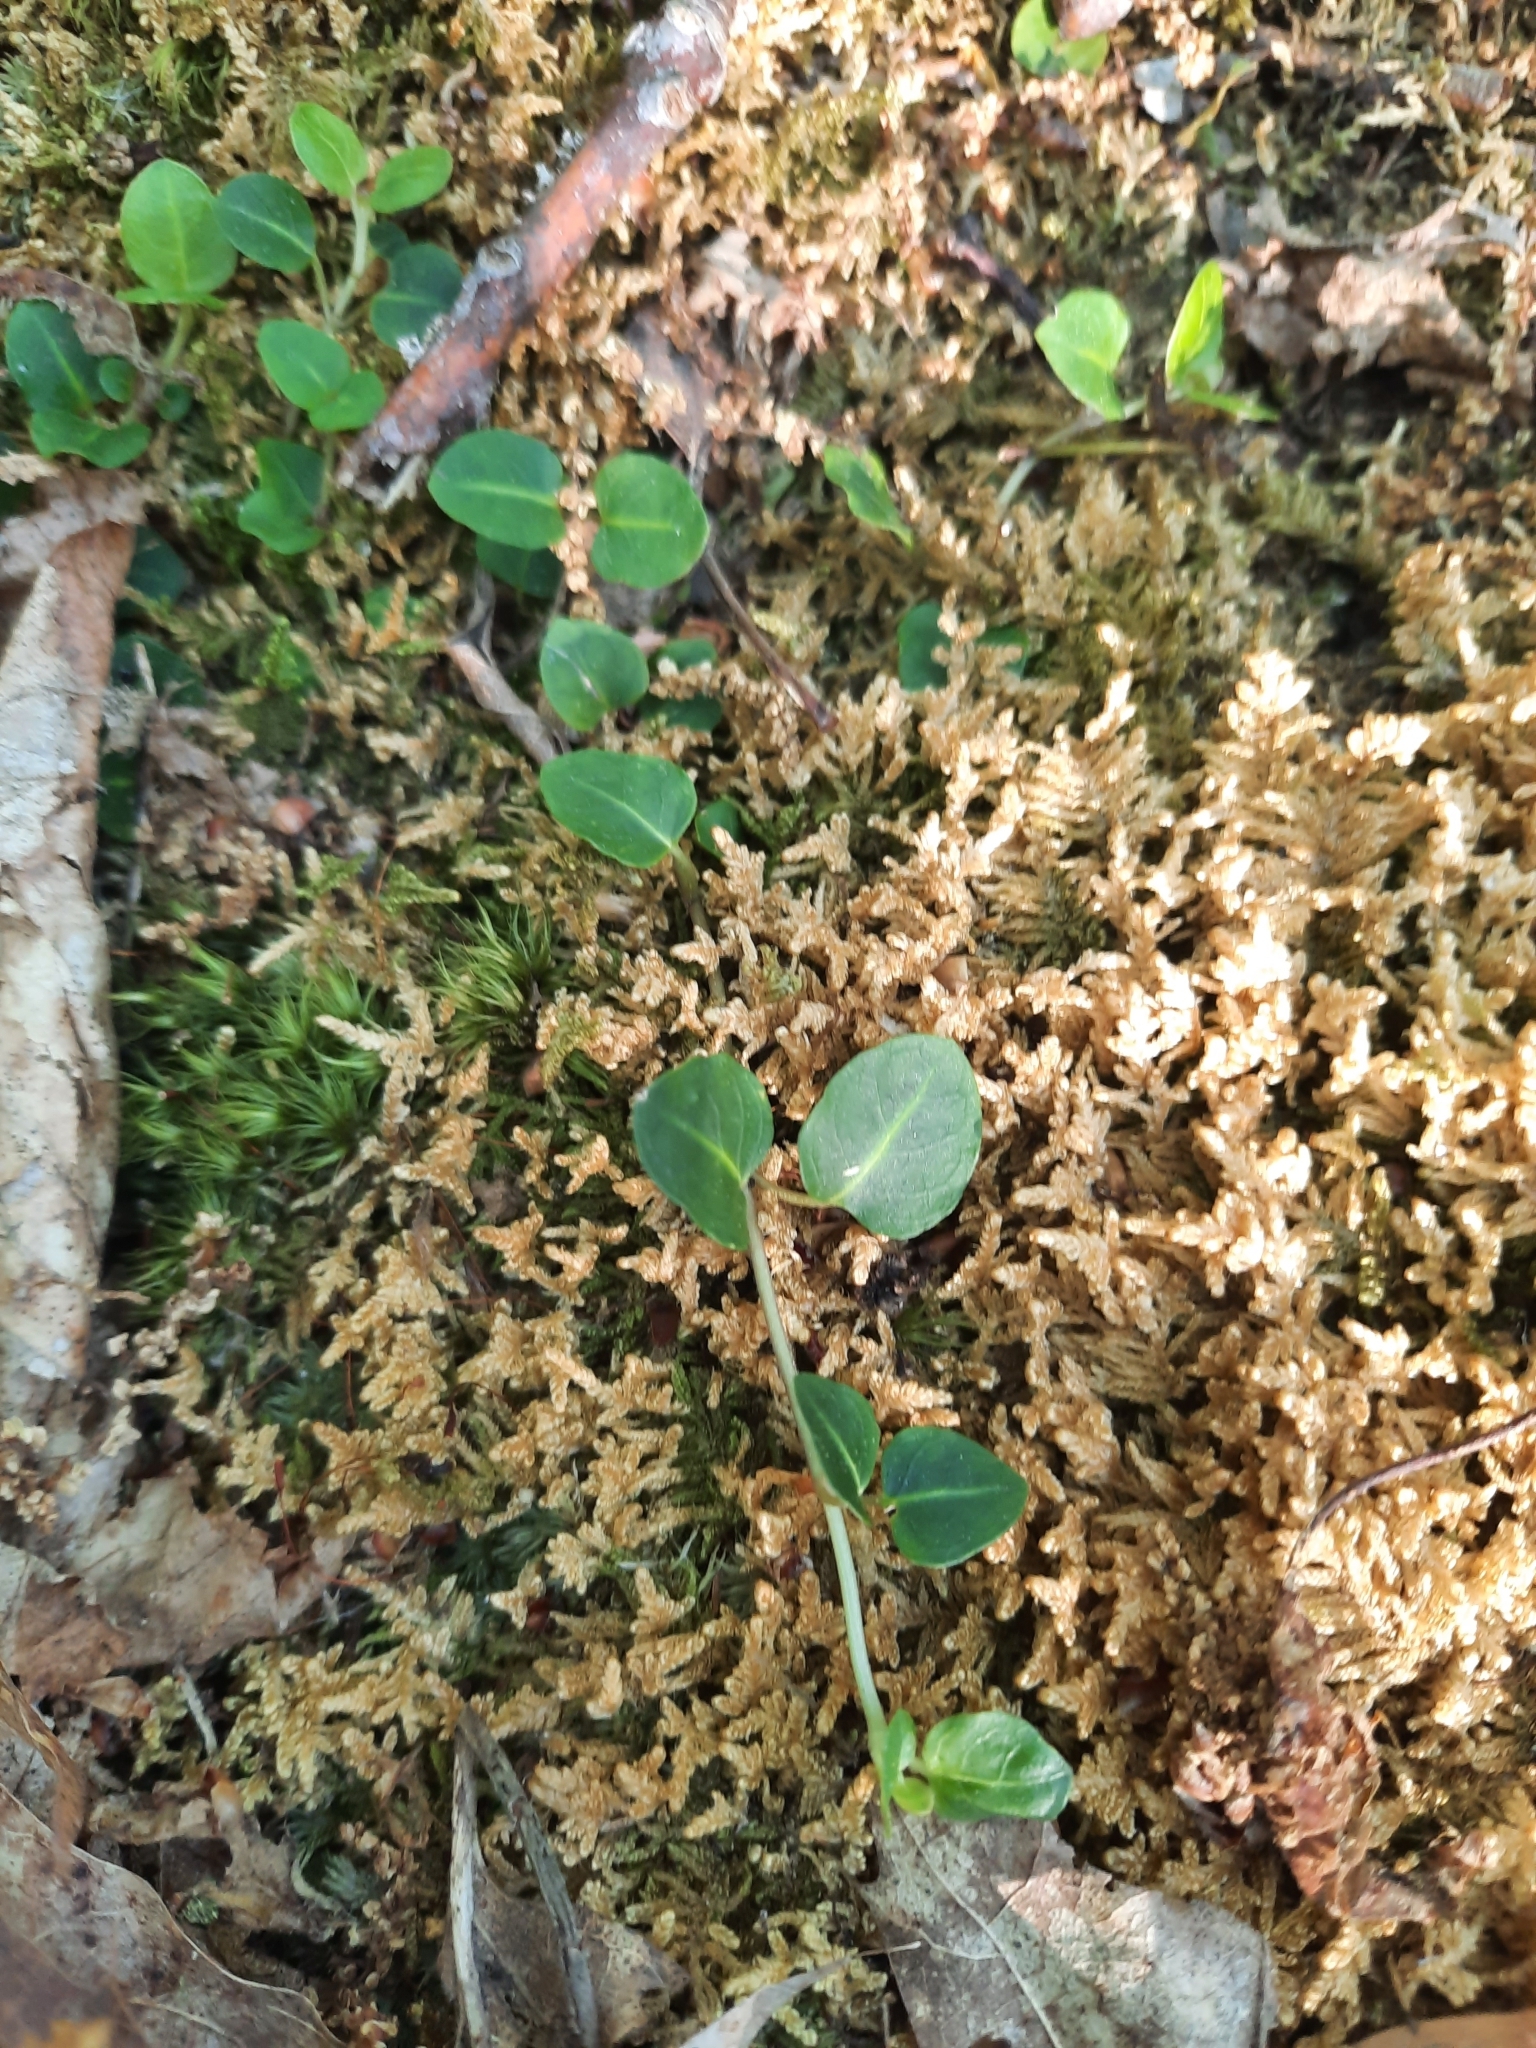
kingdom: Plantae
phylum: Tracheophyta
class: Magnoliopsida
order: Gentianales
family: Rubiaceae
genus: Mitchella
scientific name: Mitchella repens
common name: Partridge-berry
